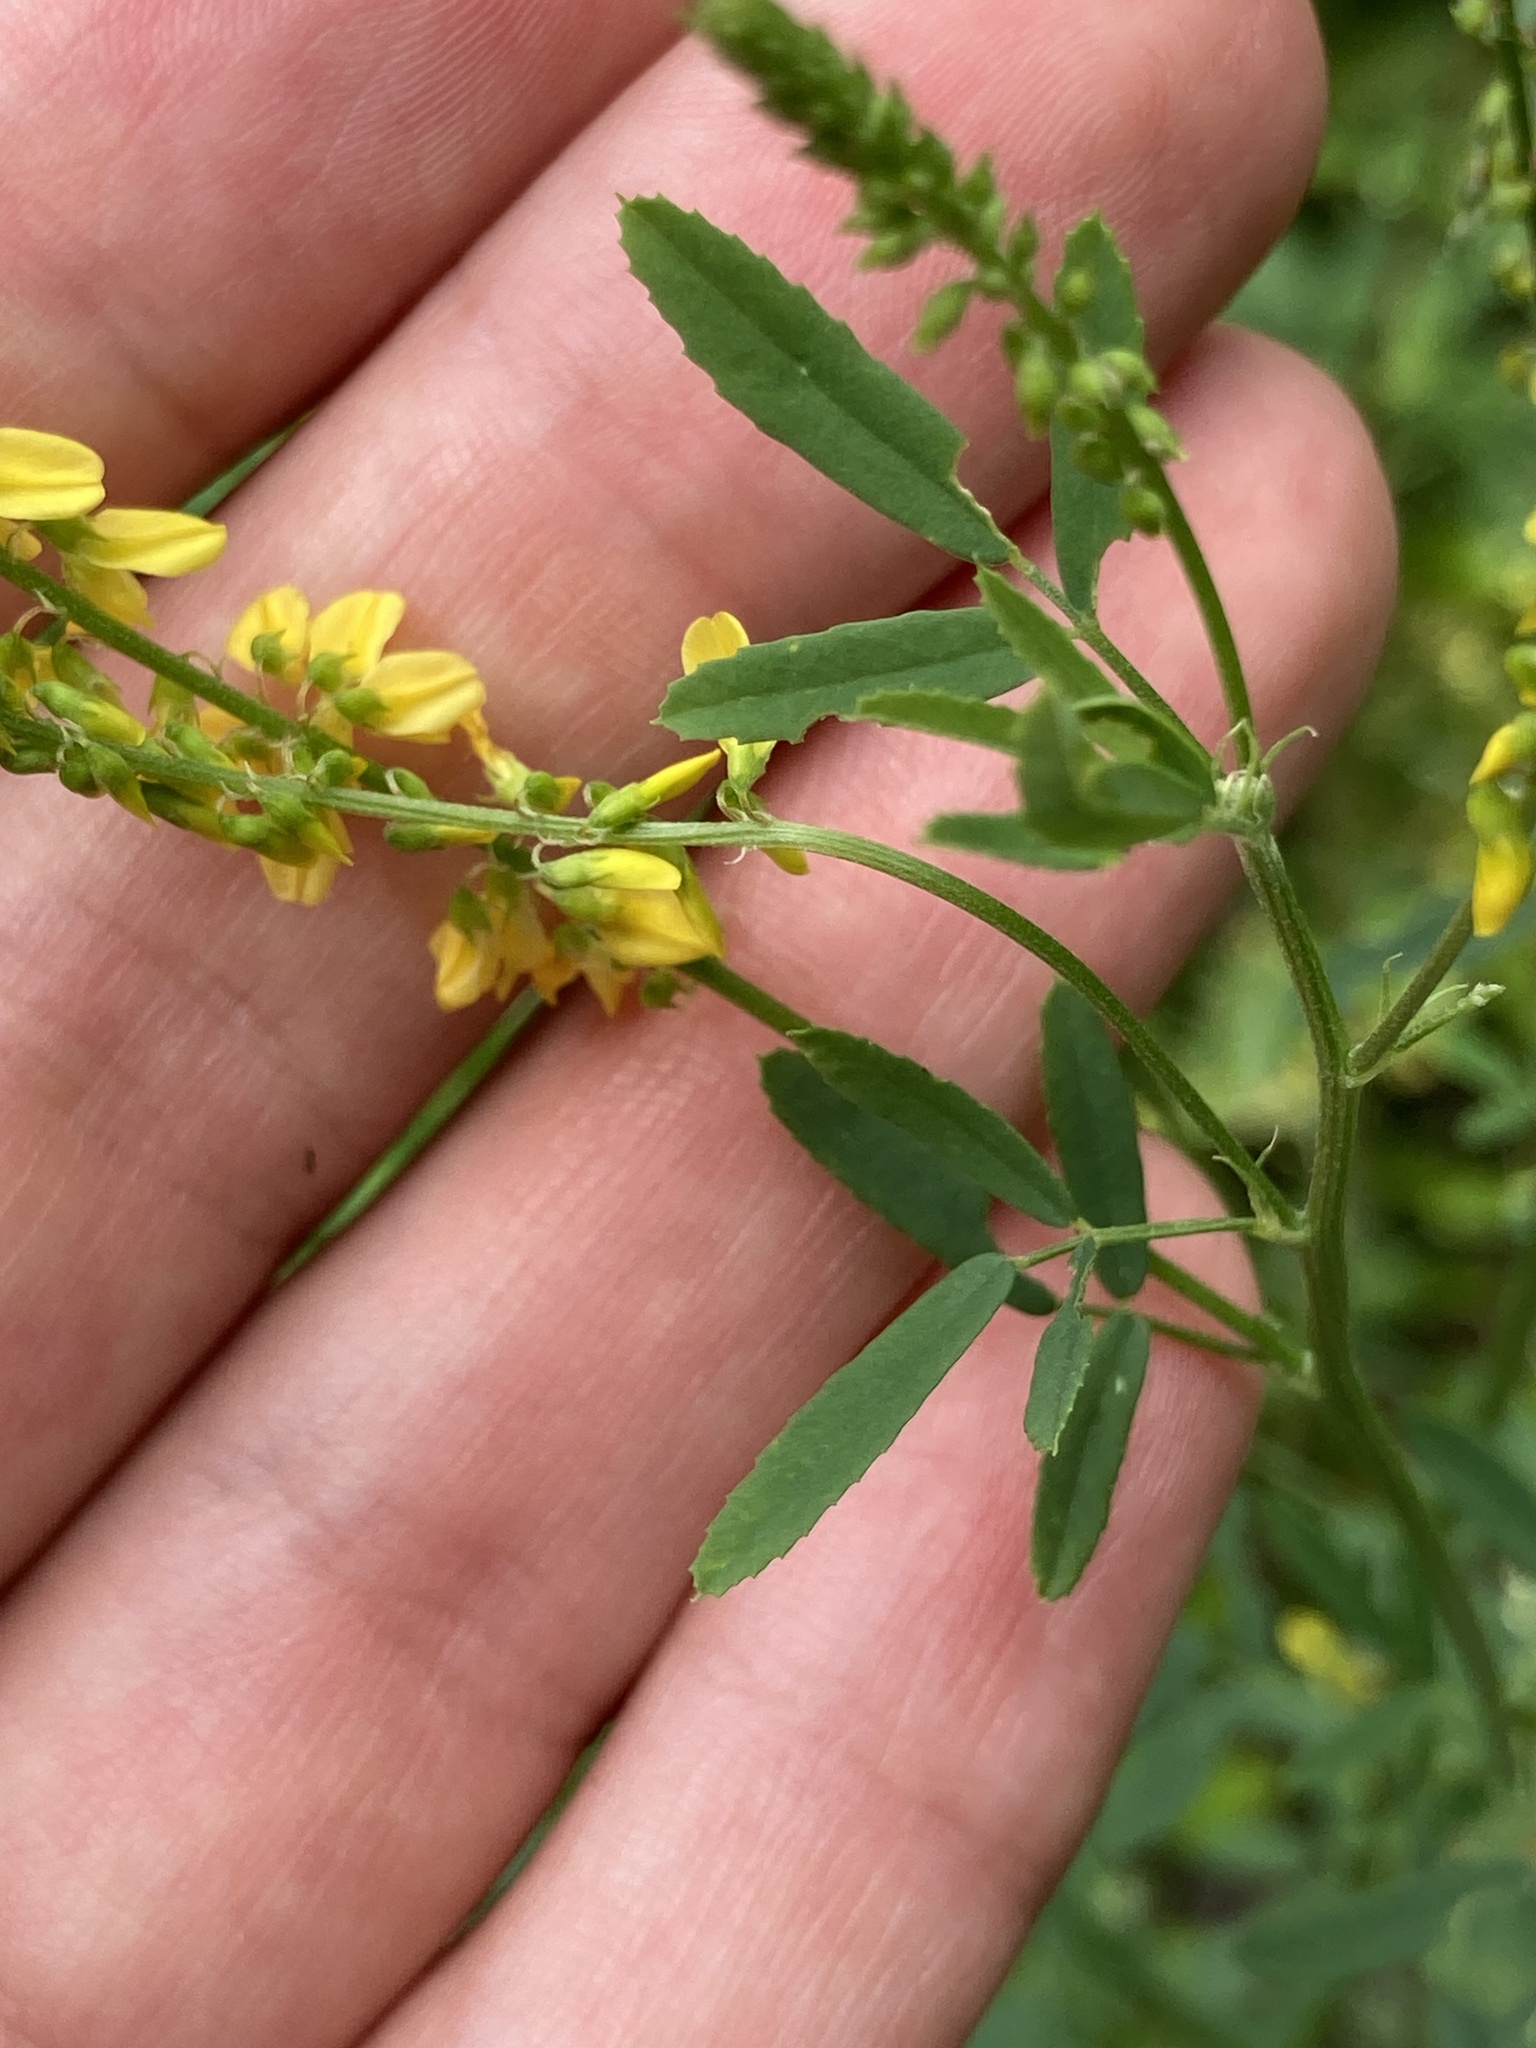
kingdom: Plantae
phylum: Tracheophyta
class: Magnoliopsida
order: Fabales
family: Fabaceae
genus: Melilotus
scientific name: Melilotus officinalis
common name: Sweetclover
